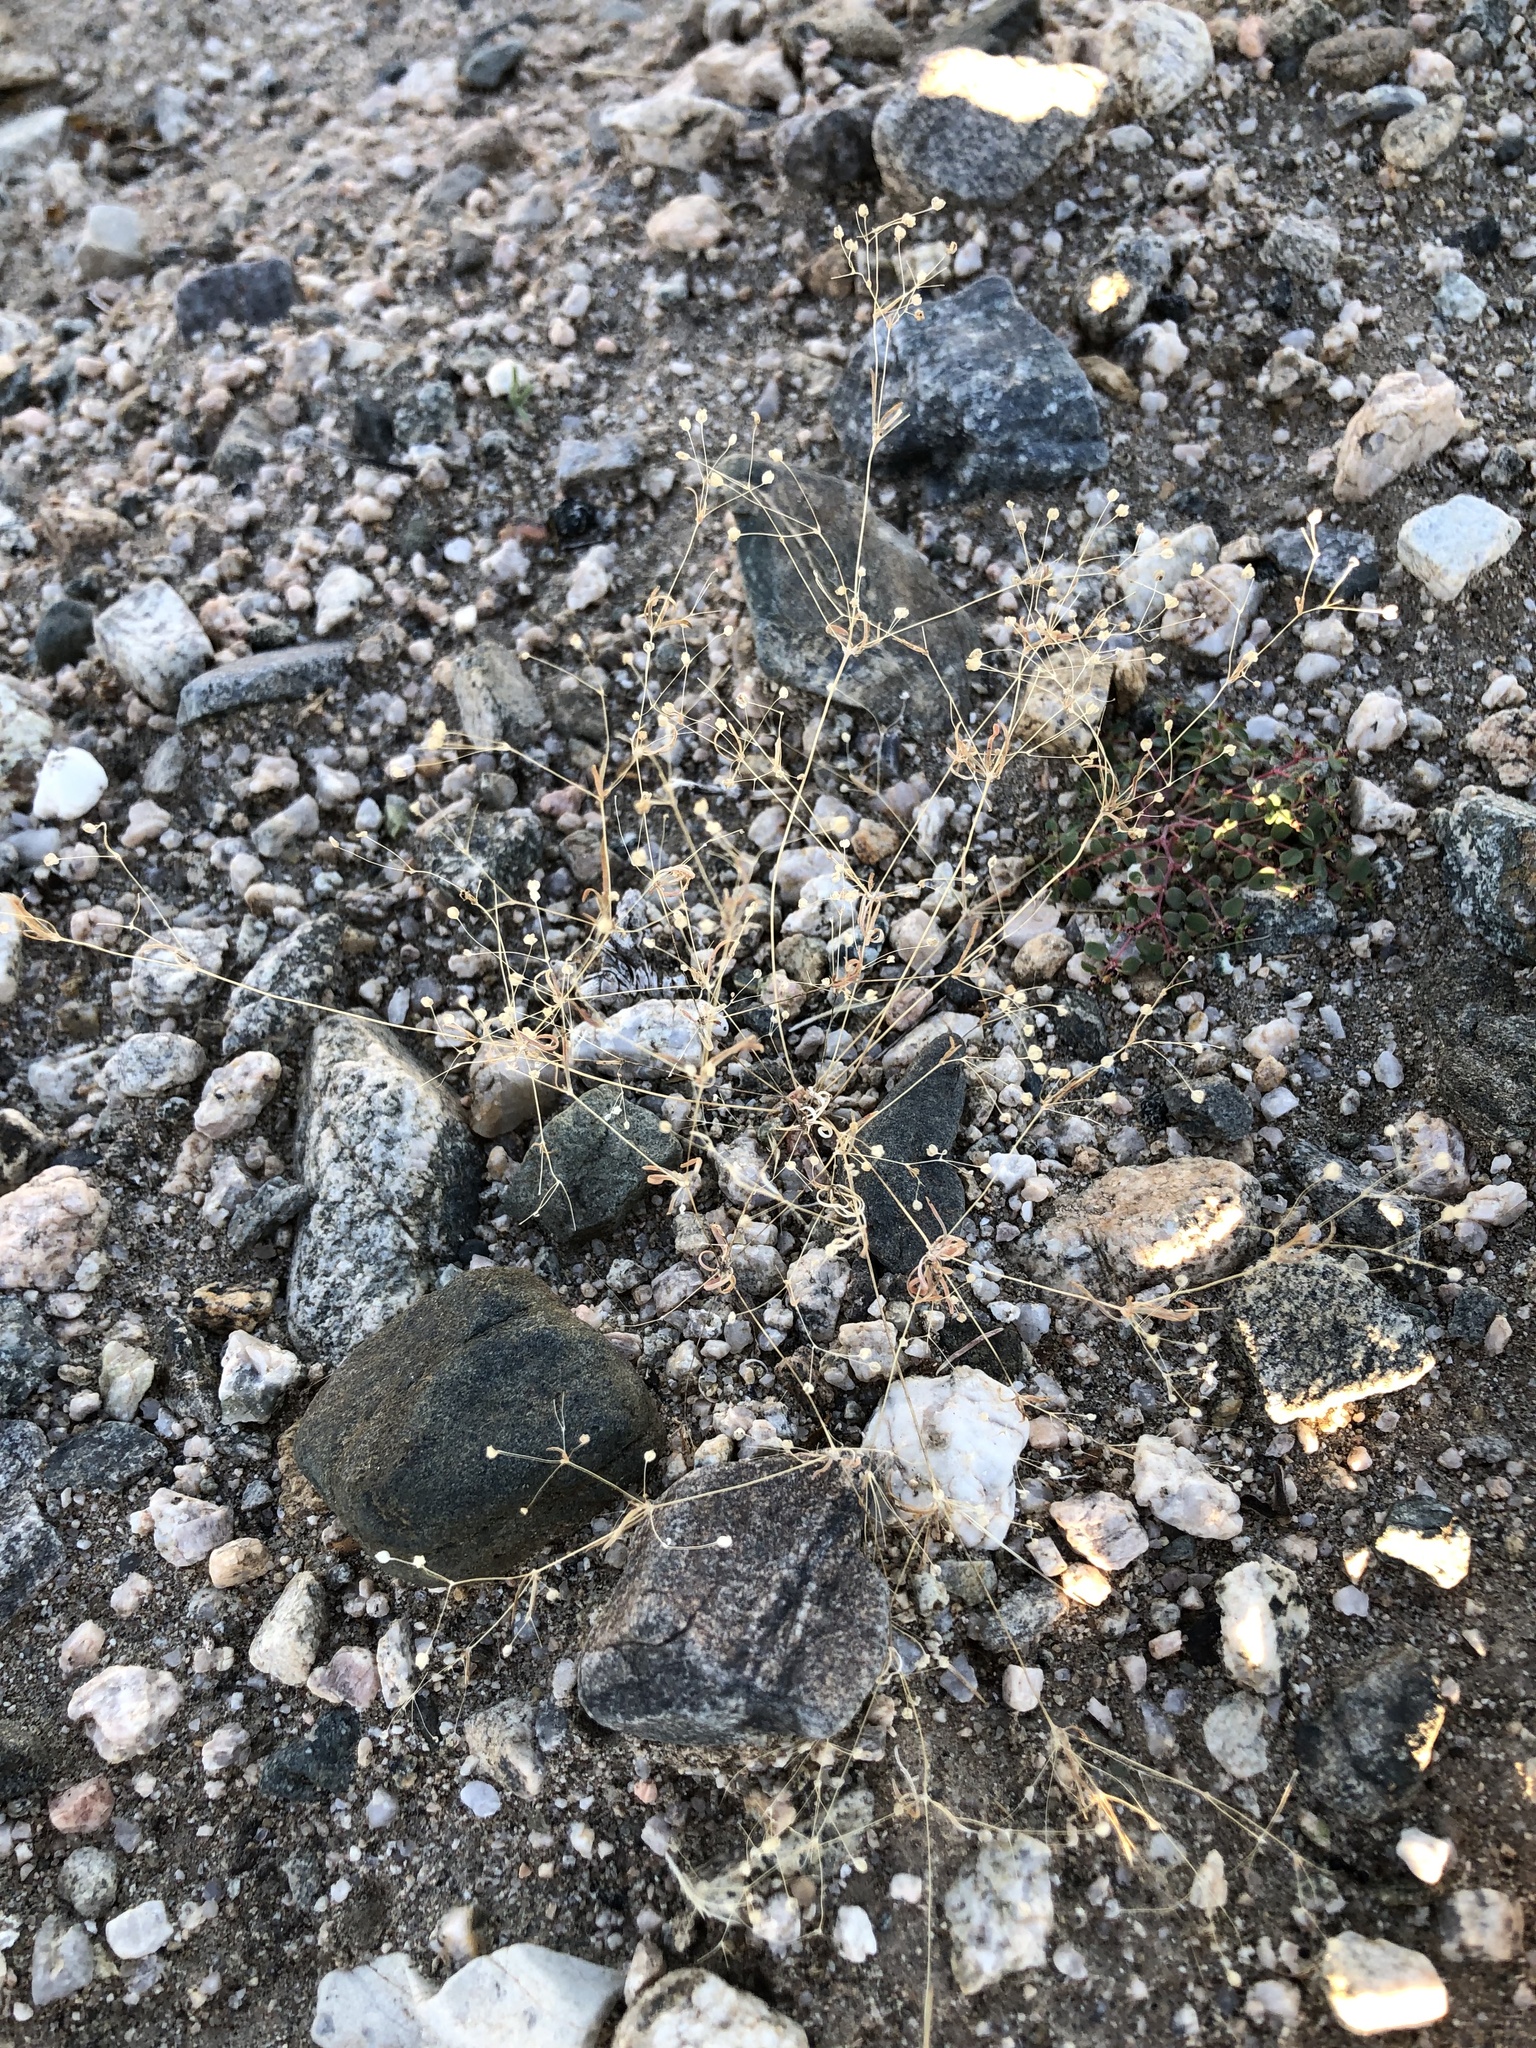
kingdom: Plantae
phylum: Tracheophyta
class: Magnoliopsida
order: Caryophyllales
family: Molluginaceae
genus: Hypertelis
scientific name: Hypertelis umbellata
